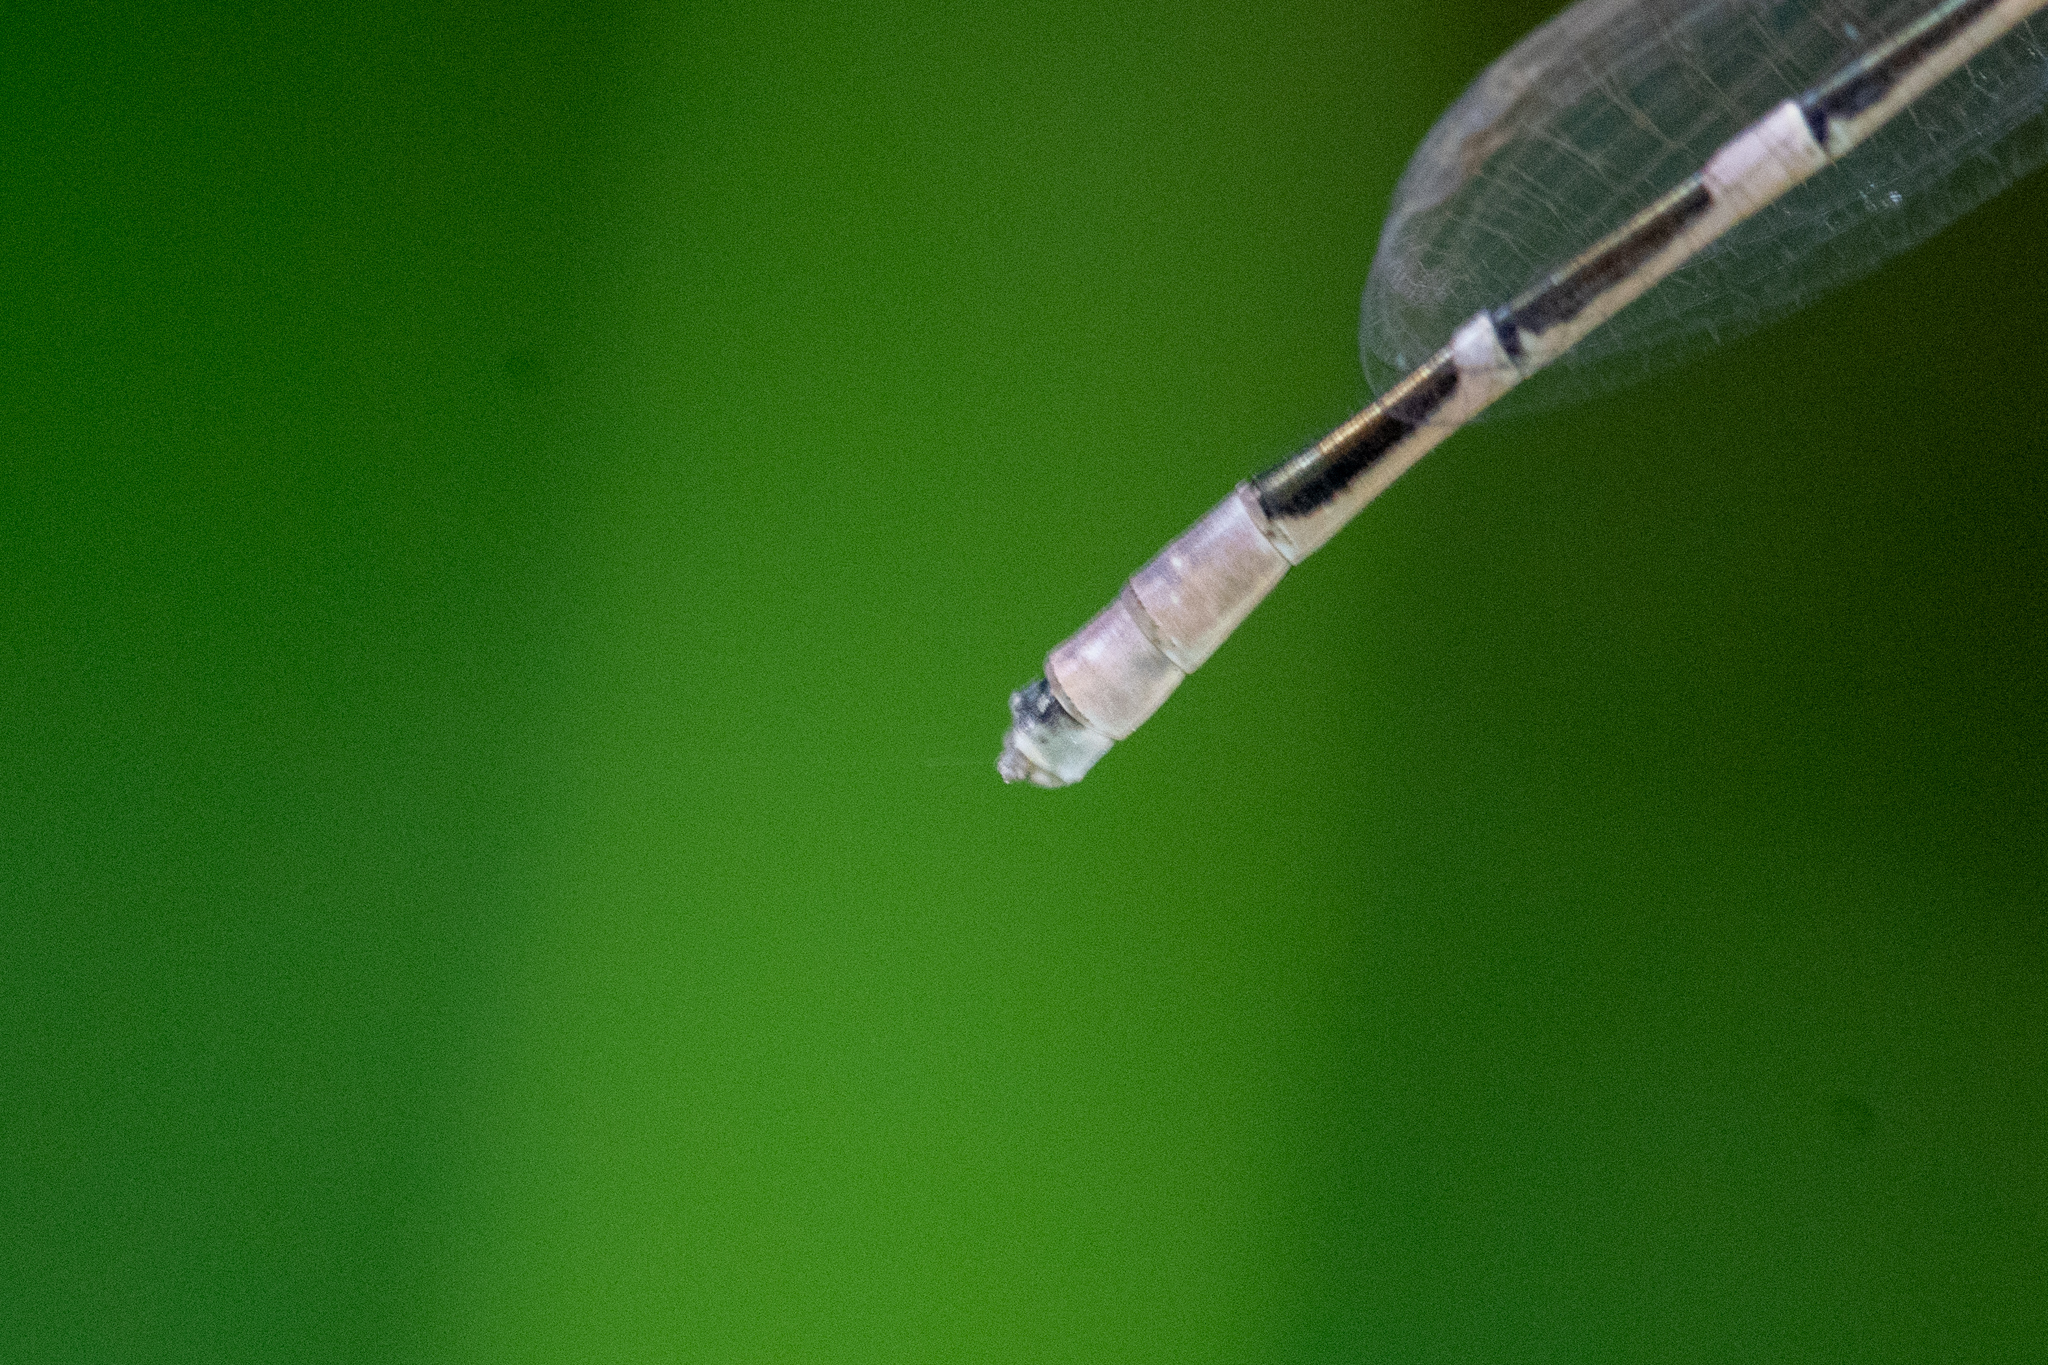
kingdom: Animalia
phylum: Arthropoda
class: Insecta
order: Odonata
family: Coenagrionidae
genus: Enallagma
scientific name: Enallagma carunculatum
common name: Tule bluet
